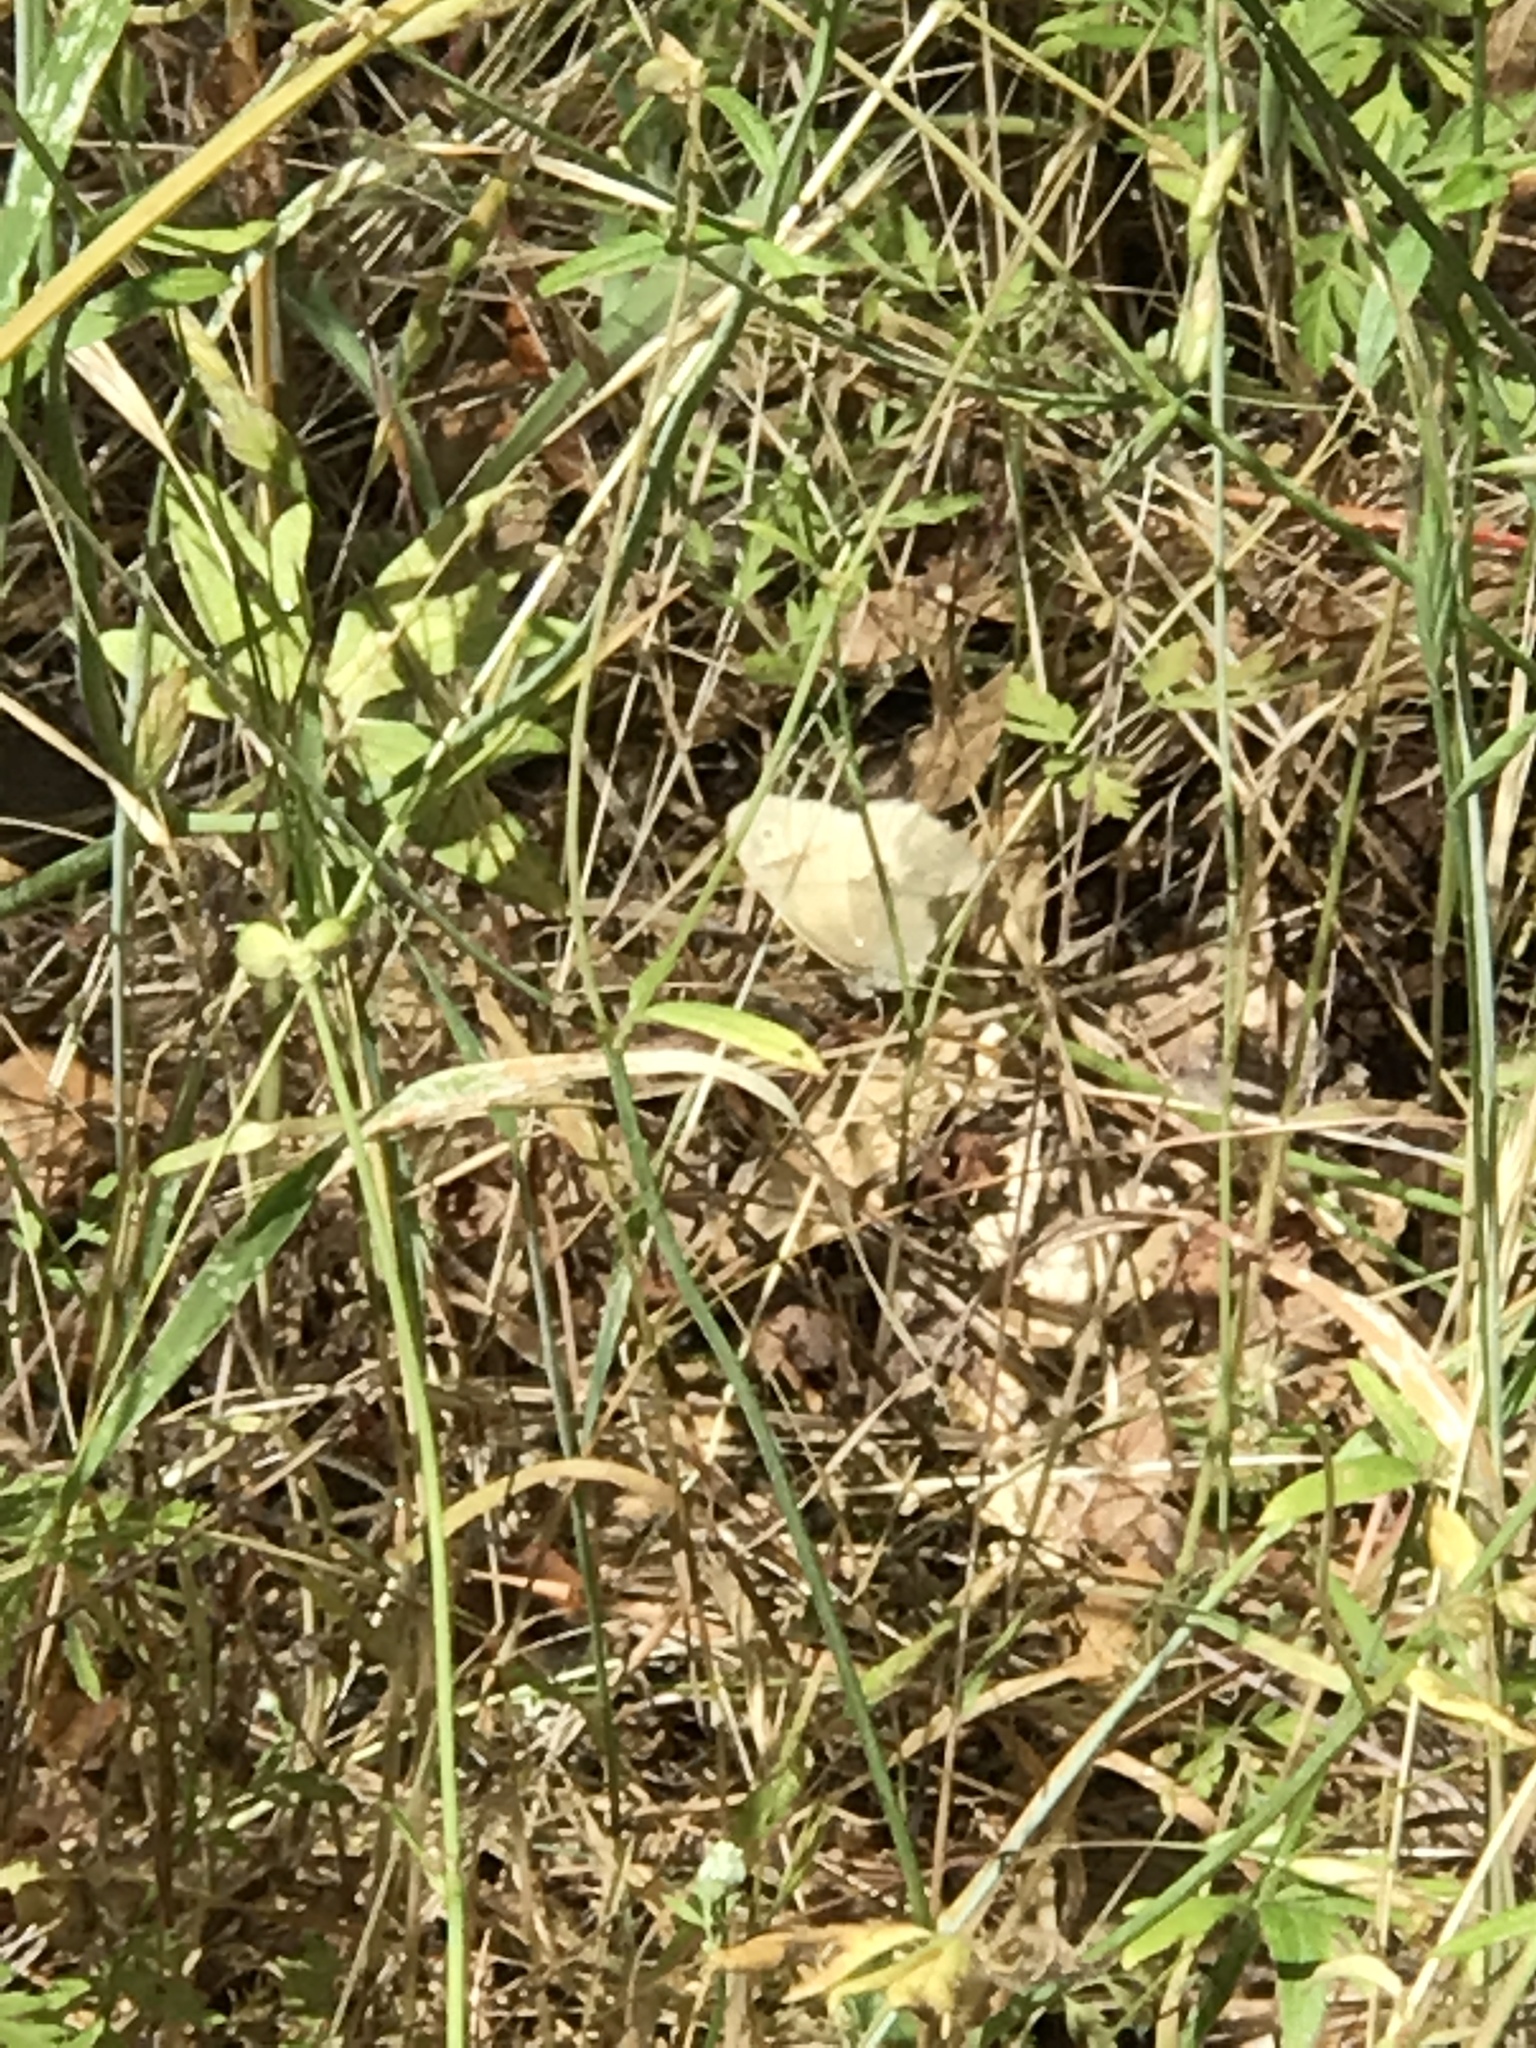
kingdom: Animalia
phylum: Arthropoda
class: Insecta
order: Lepidoptera
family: Nymphalidae
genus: Coenonympha
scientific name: Coenonympha california
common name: Common ringlet
